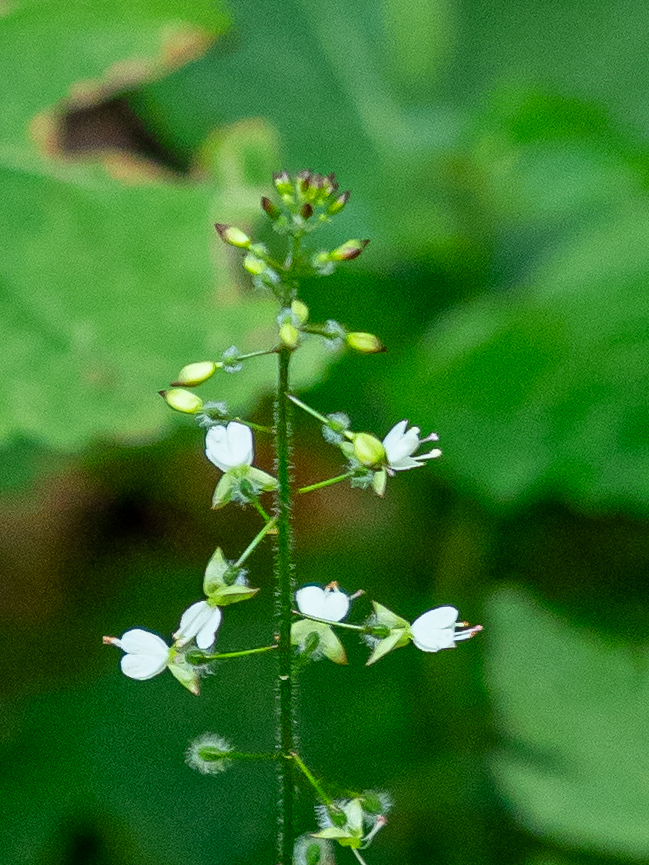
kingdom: Plantae
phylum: Tracheophyta
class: Magnoliopsida
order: Myrtales
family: Onagraceae
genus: Circaea
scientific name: Circaea lutetiana
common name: Enchanter's-nightshade
